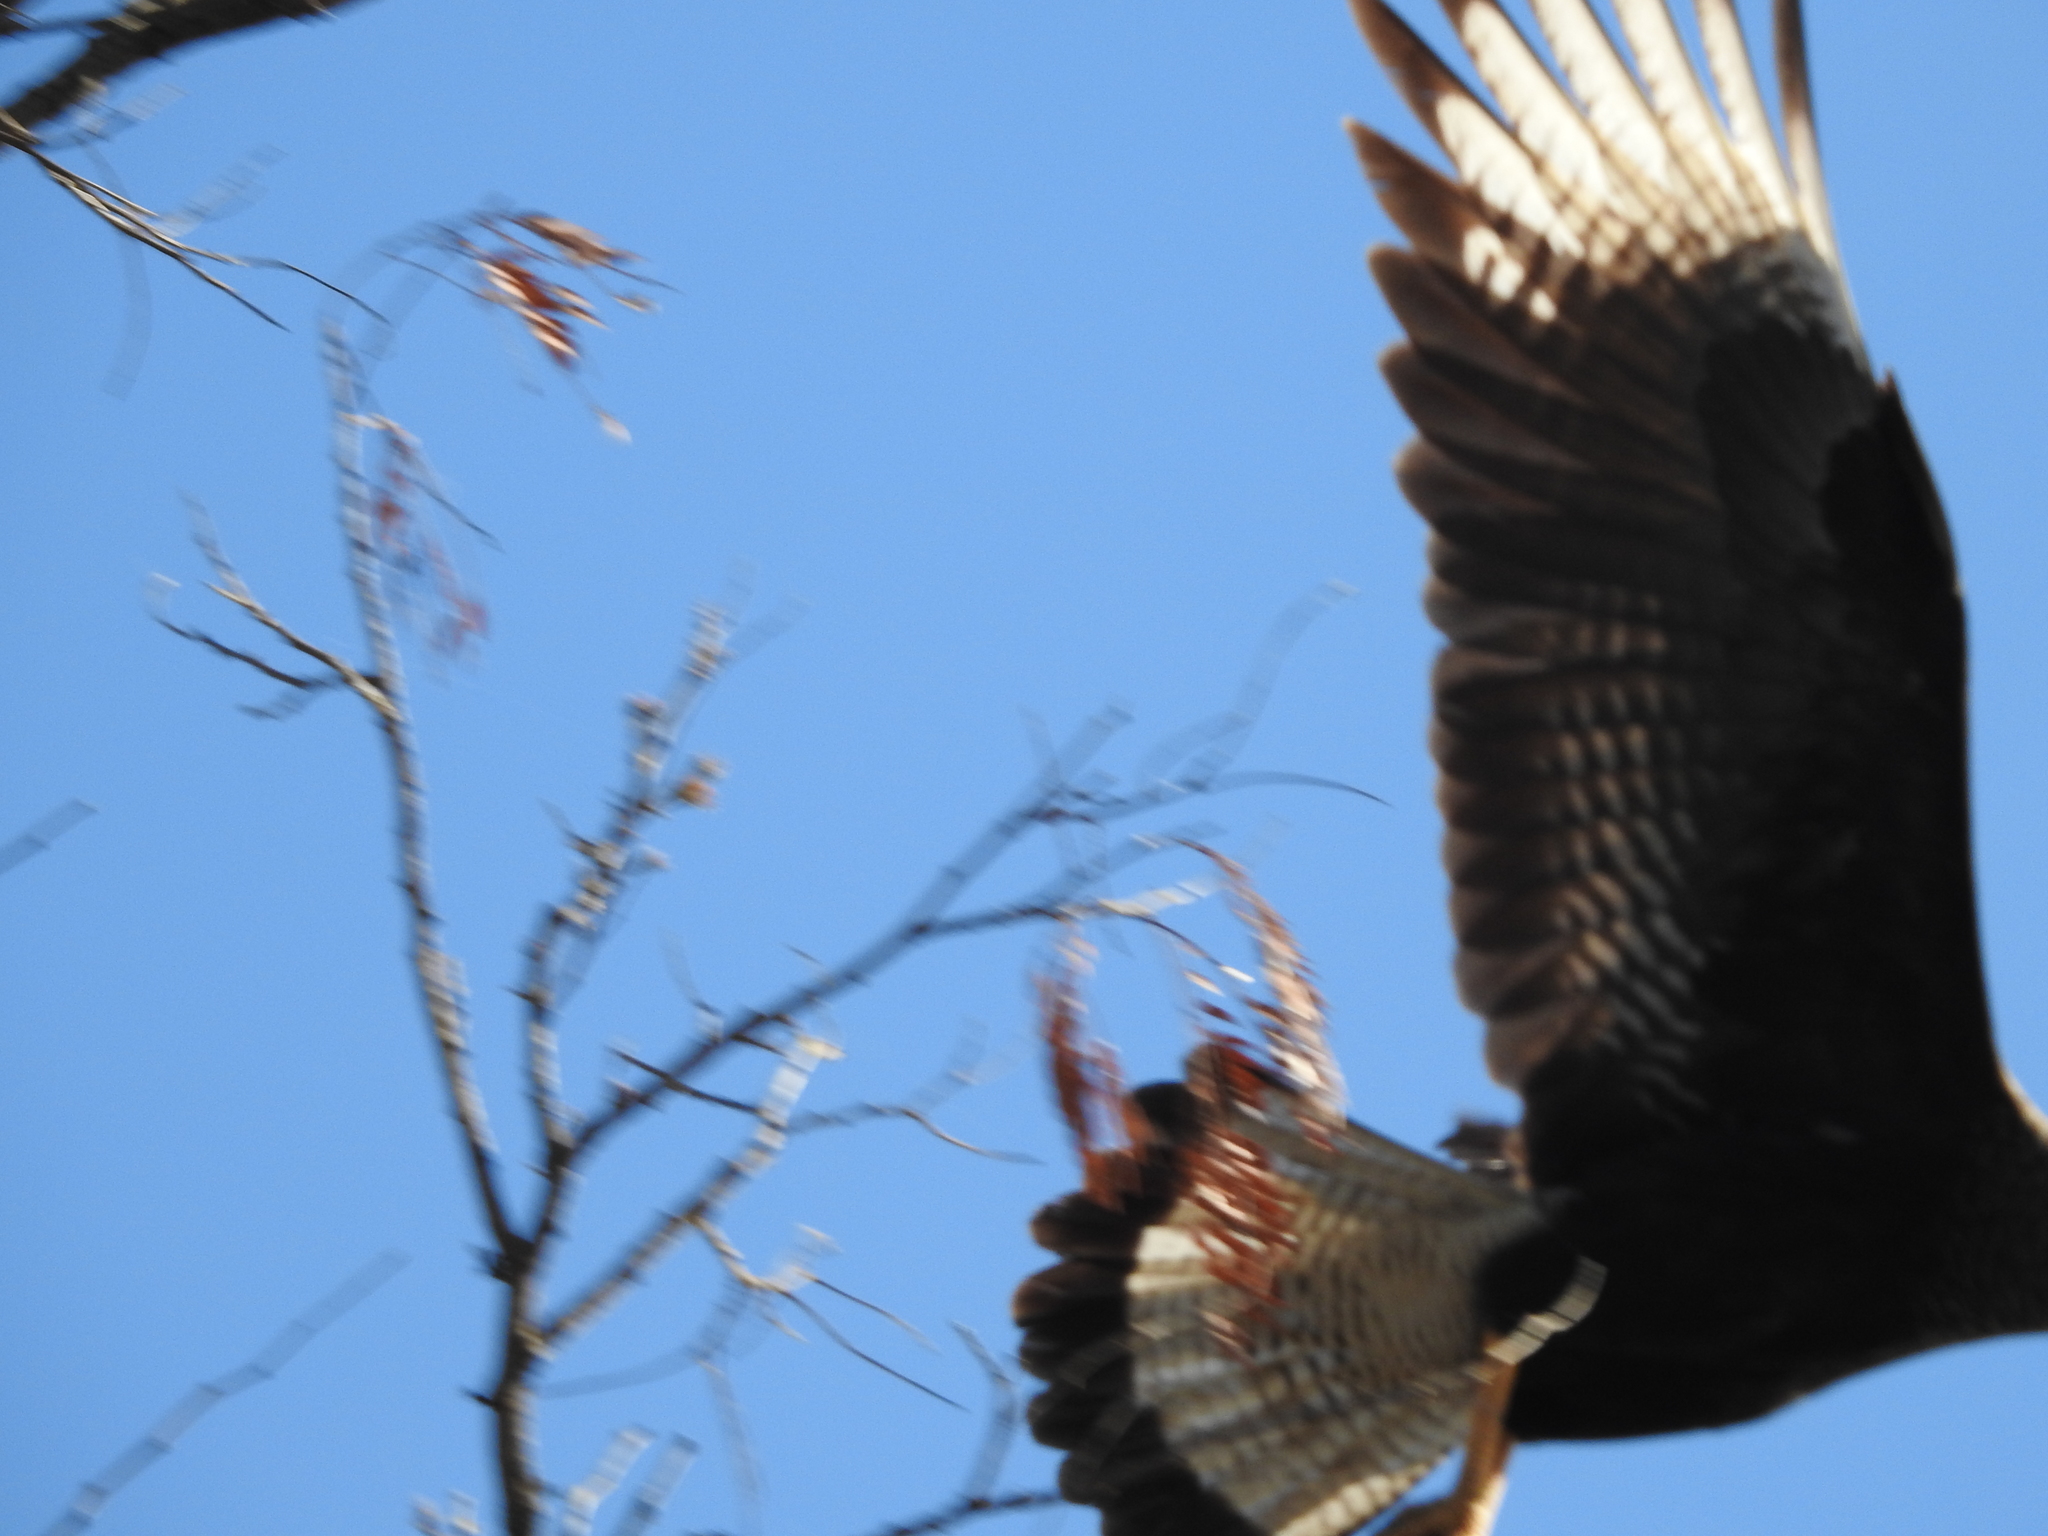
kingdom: Animalia
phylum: Chordata
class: Aves
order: Falconiformes
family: Falconidae
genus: Caracara
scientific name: Caracara plancus
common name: Southern caracara
